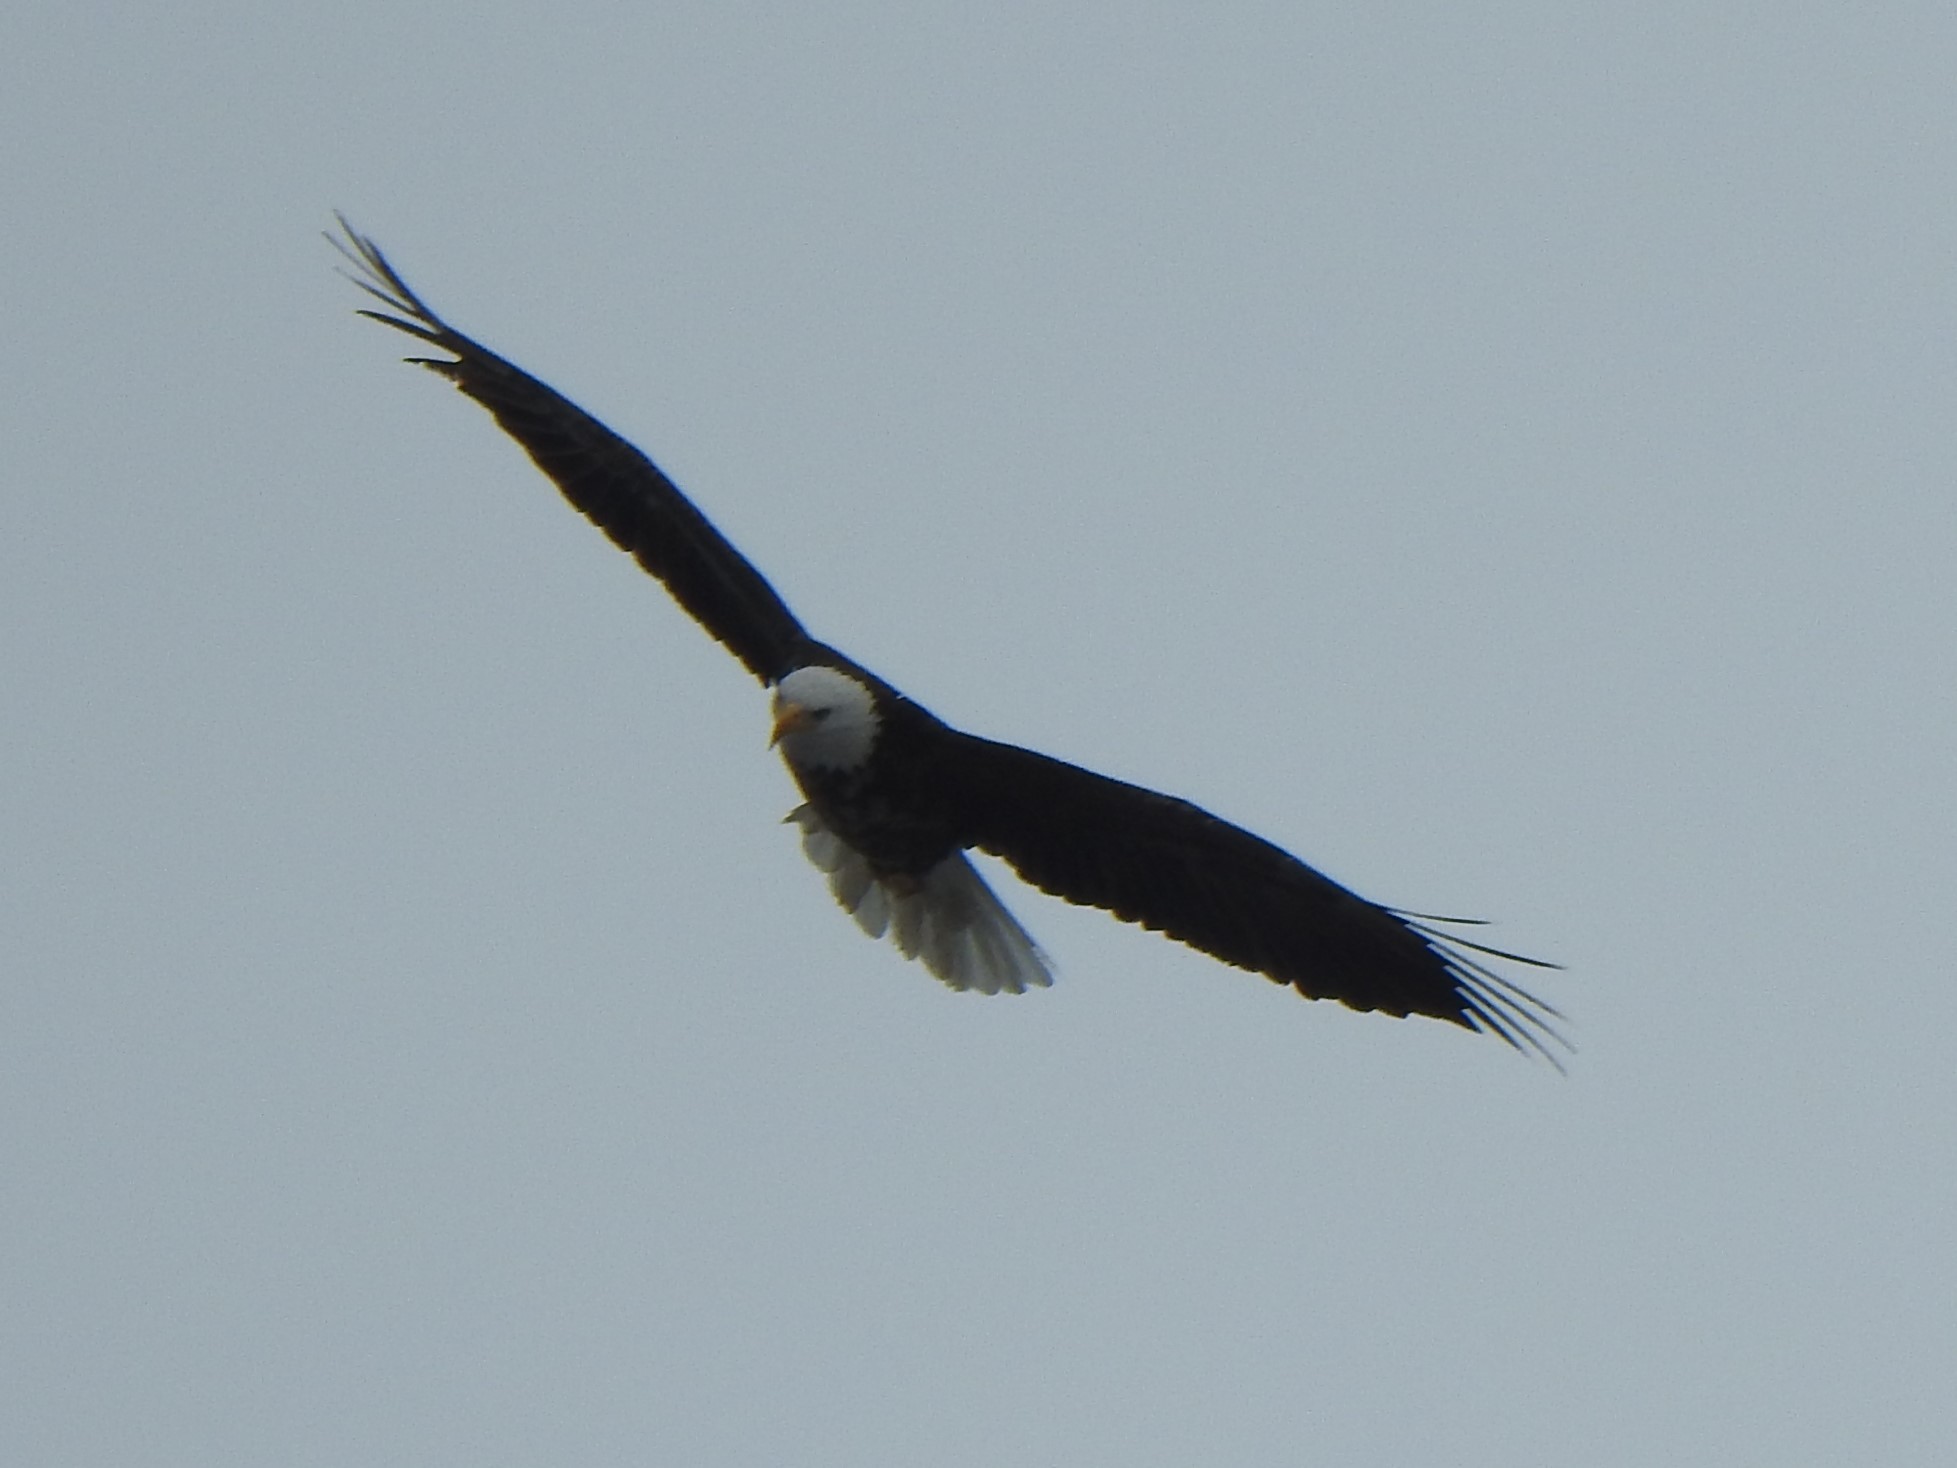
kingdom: Animalia
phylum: Chordata
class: Aves
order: Accipitriformes
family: Accipitridae
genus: Haliaeetus
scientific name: Haliaeetus leucocephalus
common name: Bald eagle
